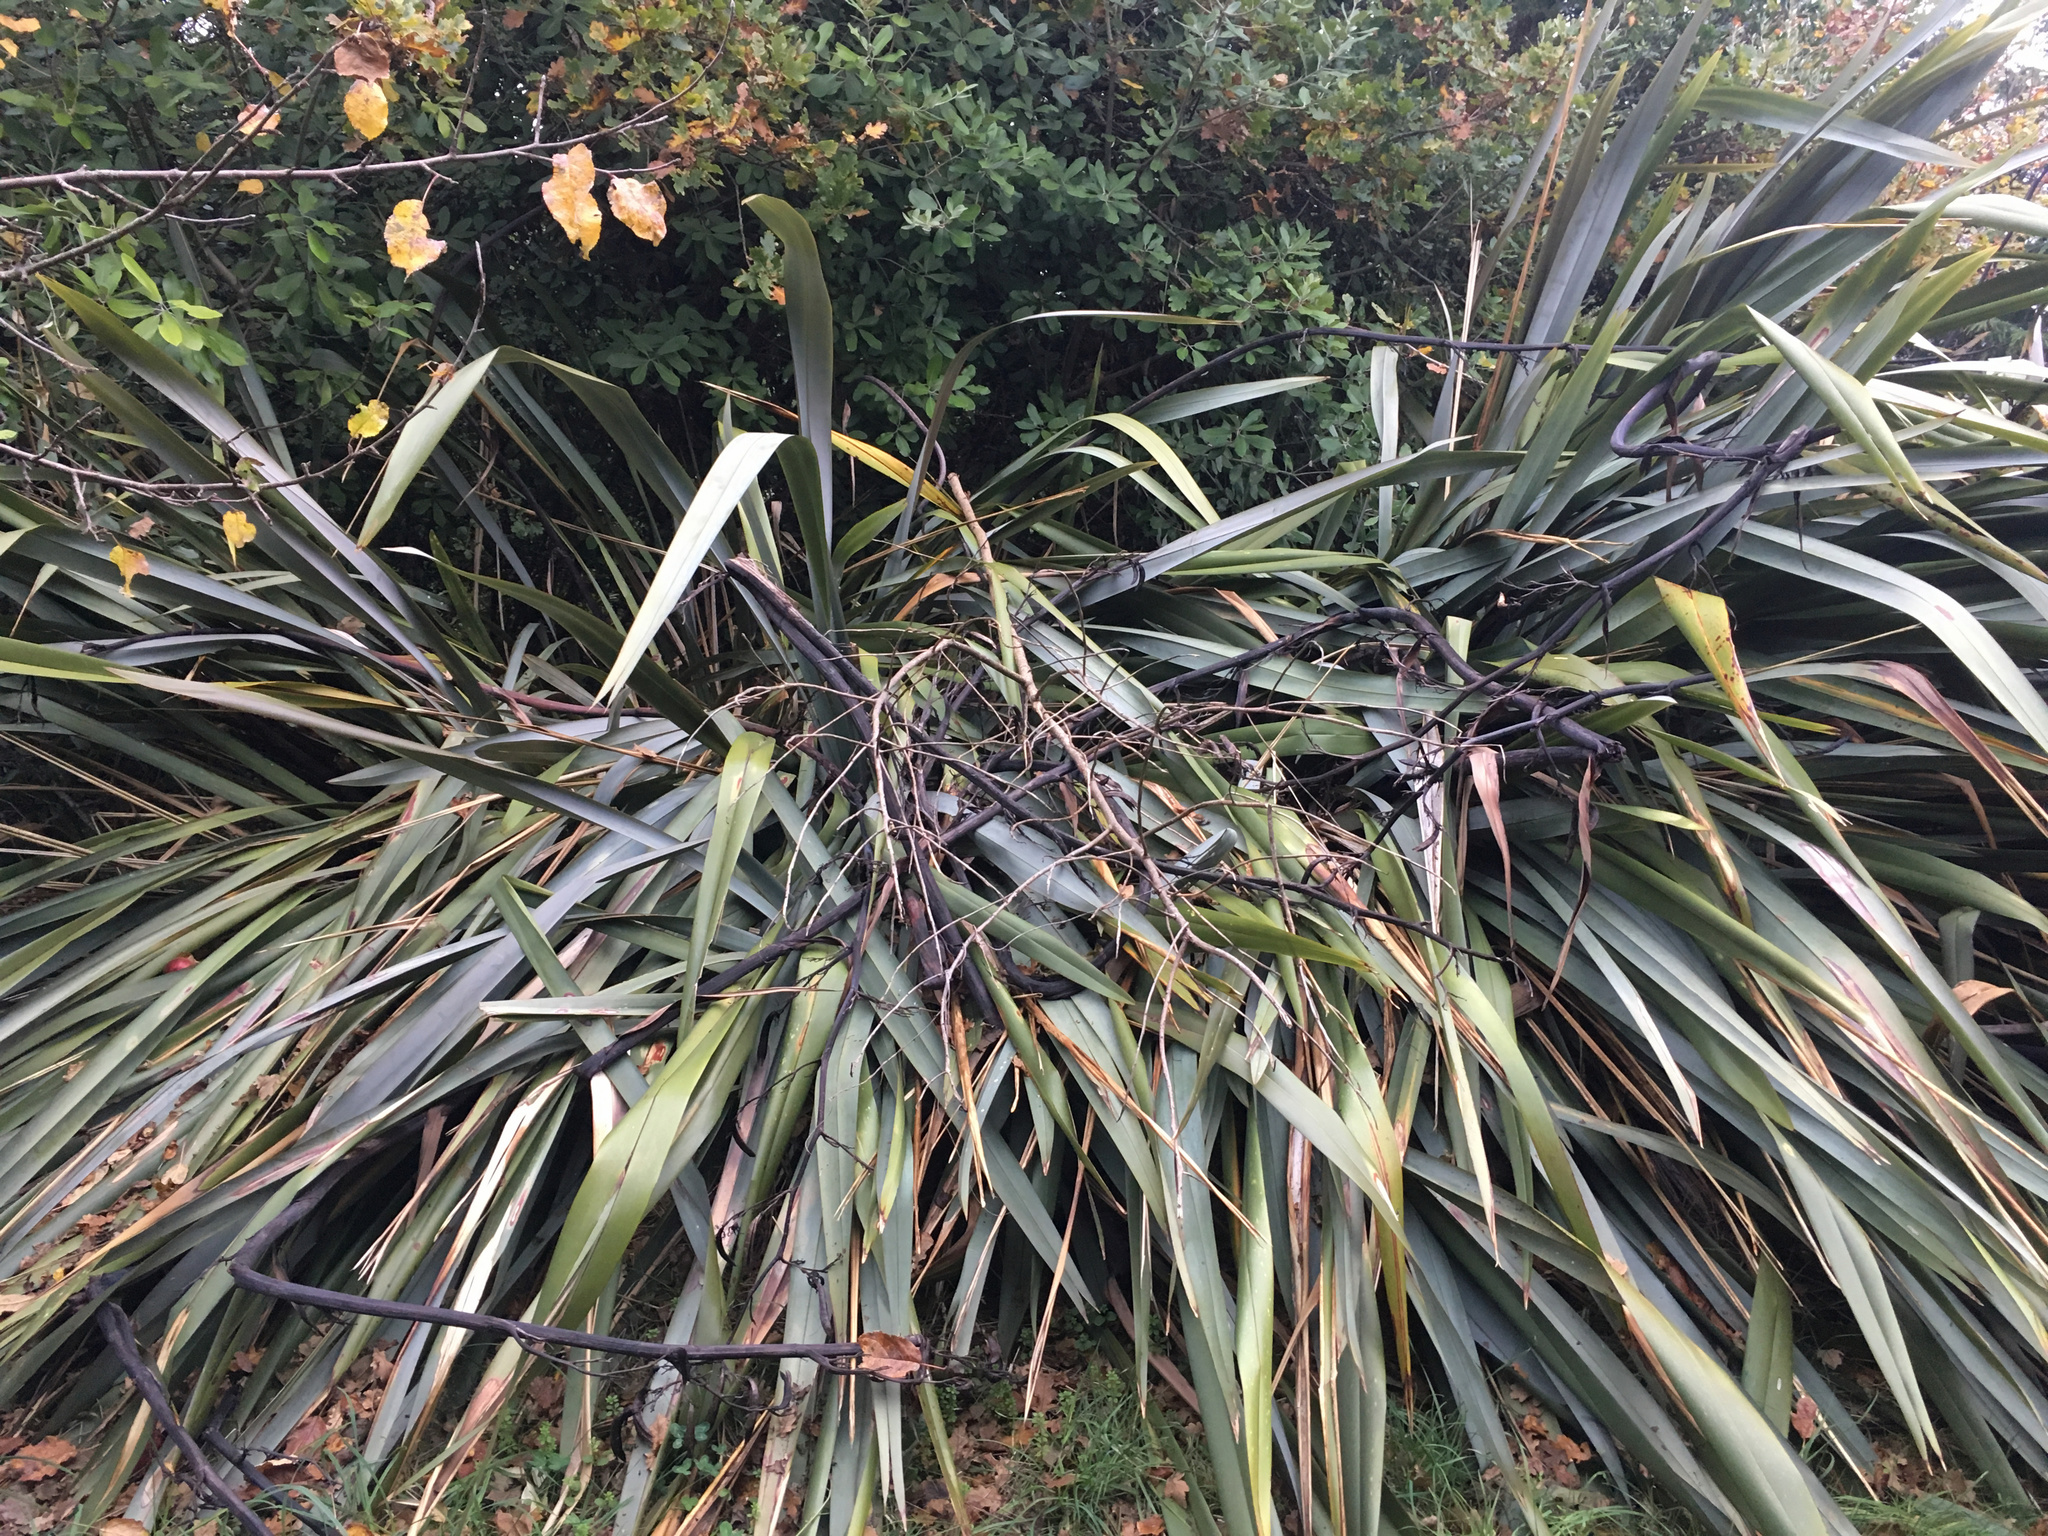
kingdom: Plantae
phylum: Tracheophyta
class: Liliopsida
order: Asparagales
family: Asphodelaceae
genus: Phormium
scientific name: Phormium tenax
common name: New zealand flax
